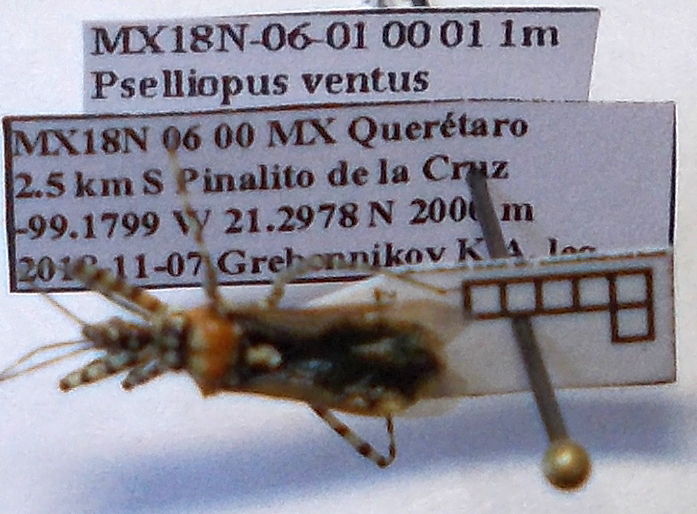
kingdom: Animalia
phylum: Arthropoda
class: Insecta
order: Hemiptera
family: Reduviidae
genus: Pselliopus
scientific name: Pselliopus ventus
